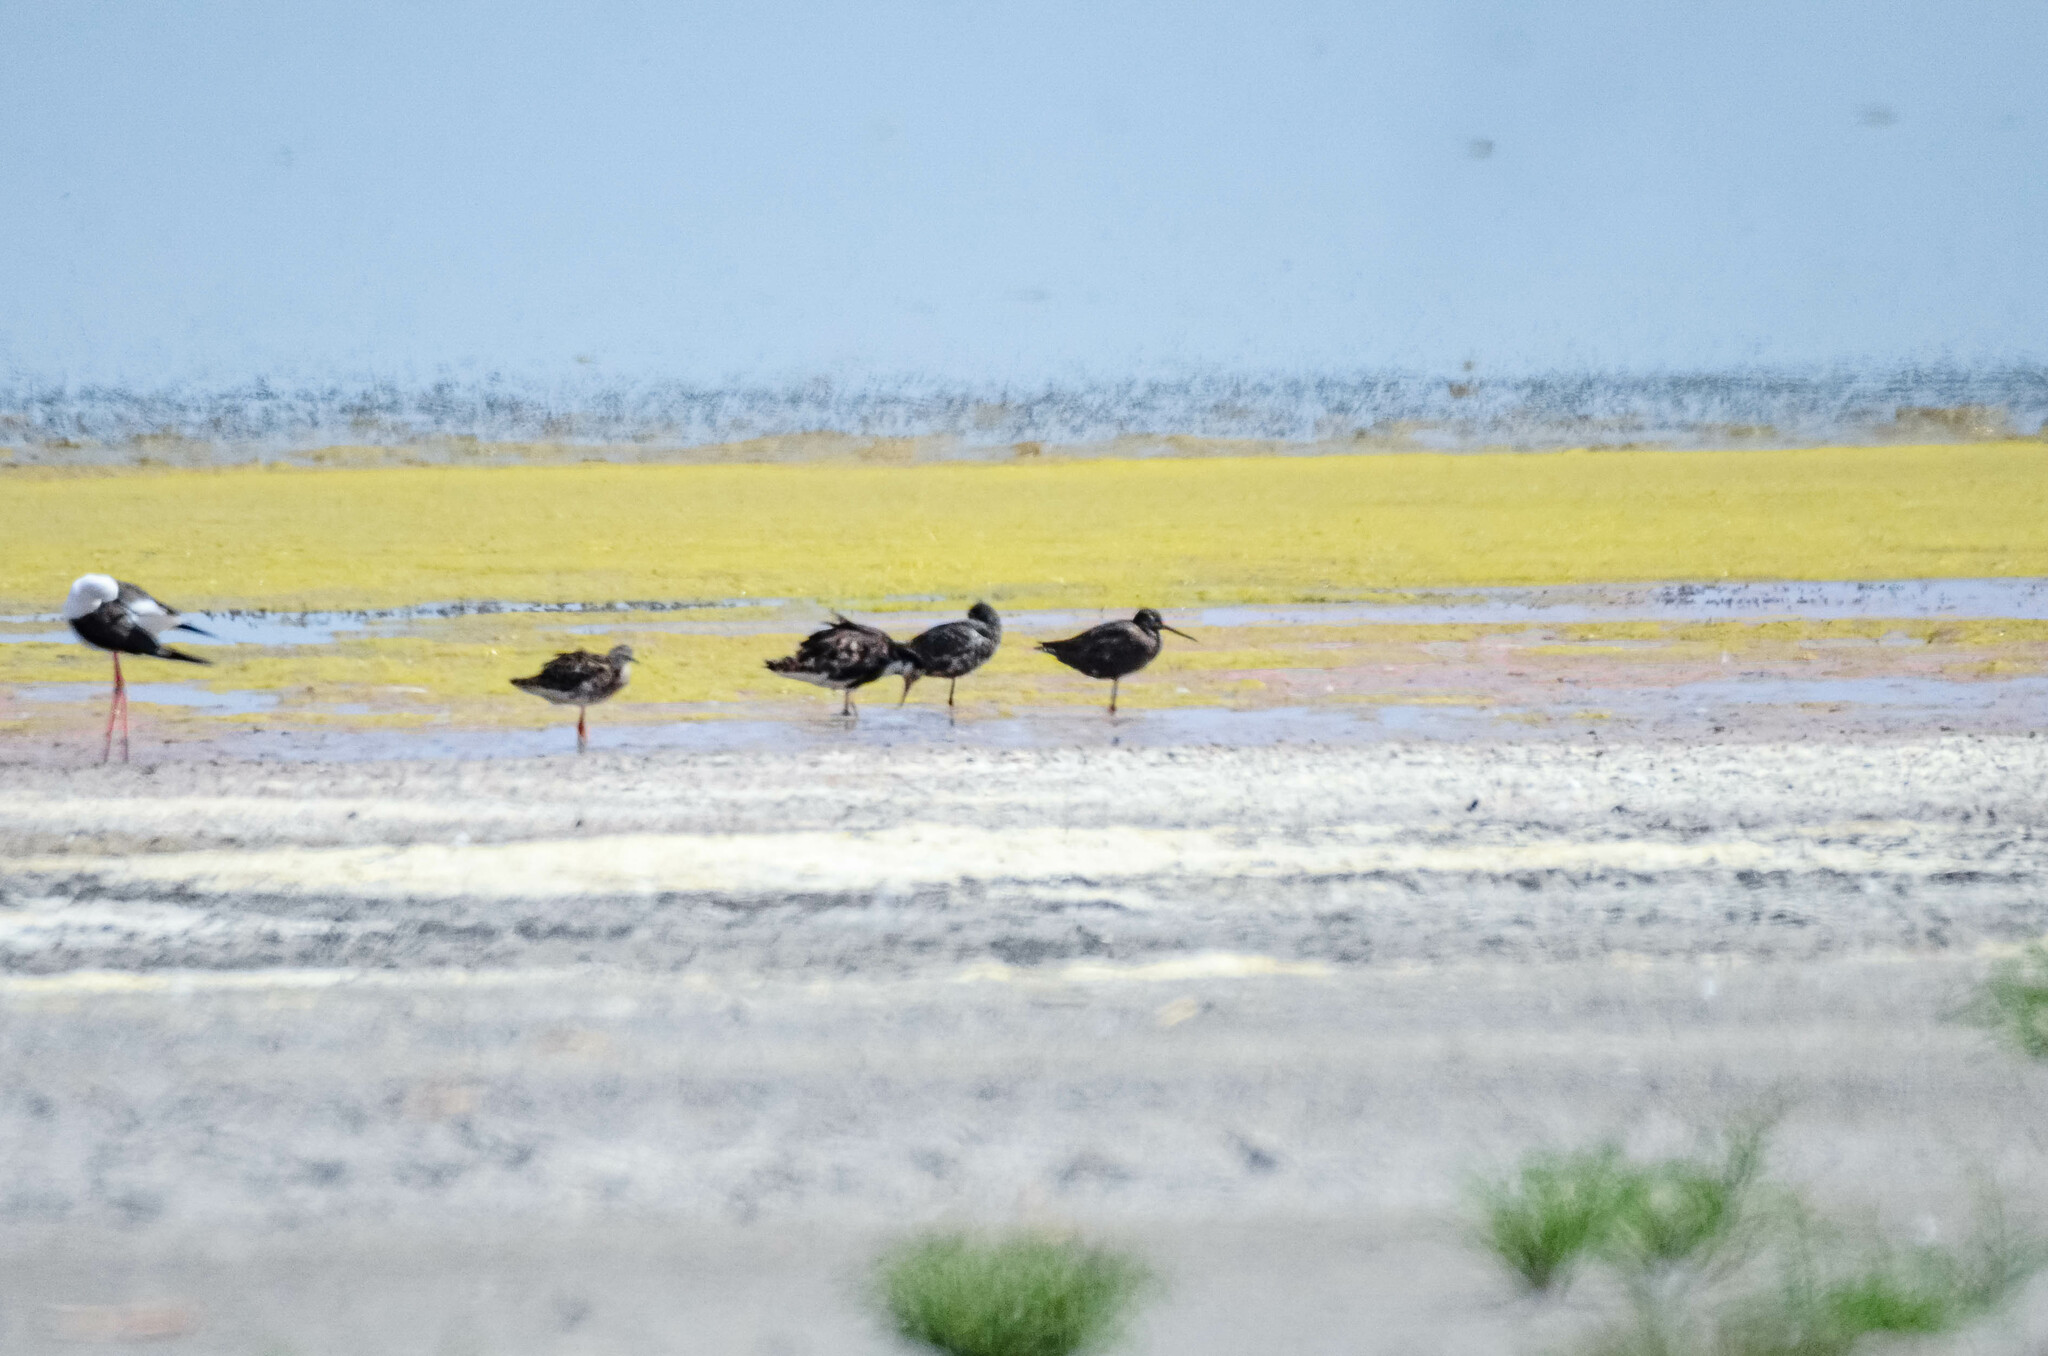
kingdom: Animalia
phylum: Chordata
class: Aves
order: Charadriiformes
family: Scolopacidae
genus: Tringa
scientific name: Tringa erythropus
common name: Spotted redshank
